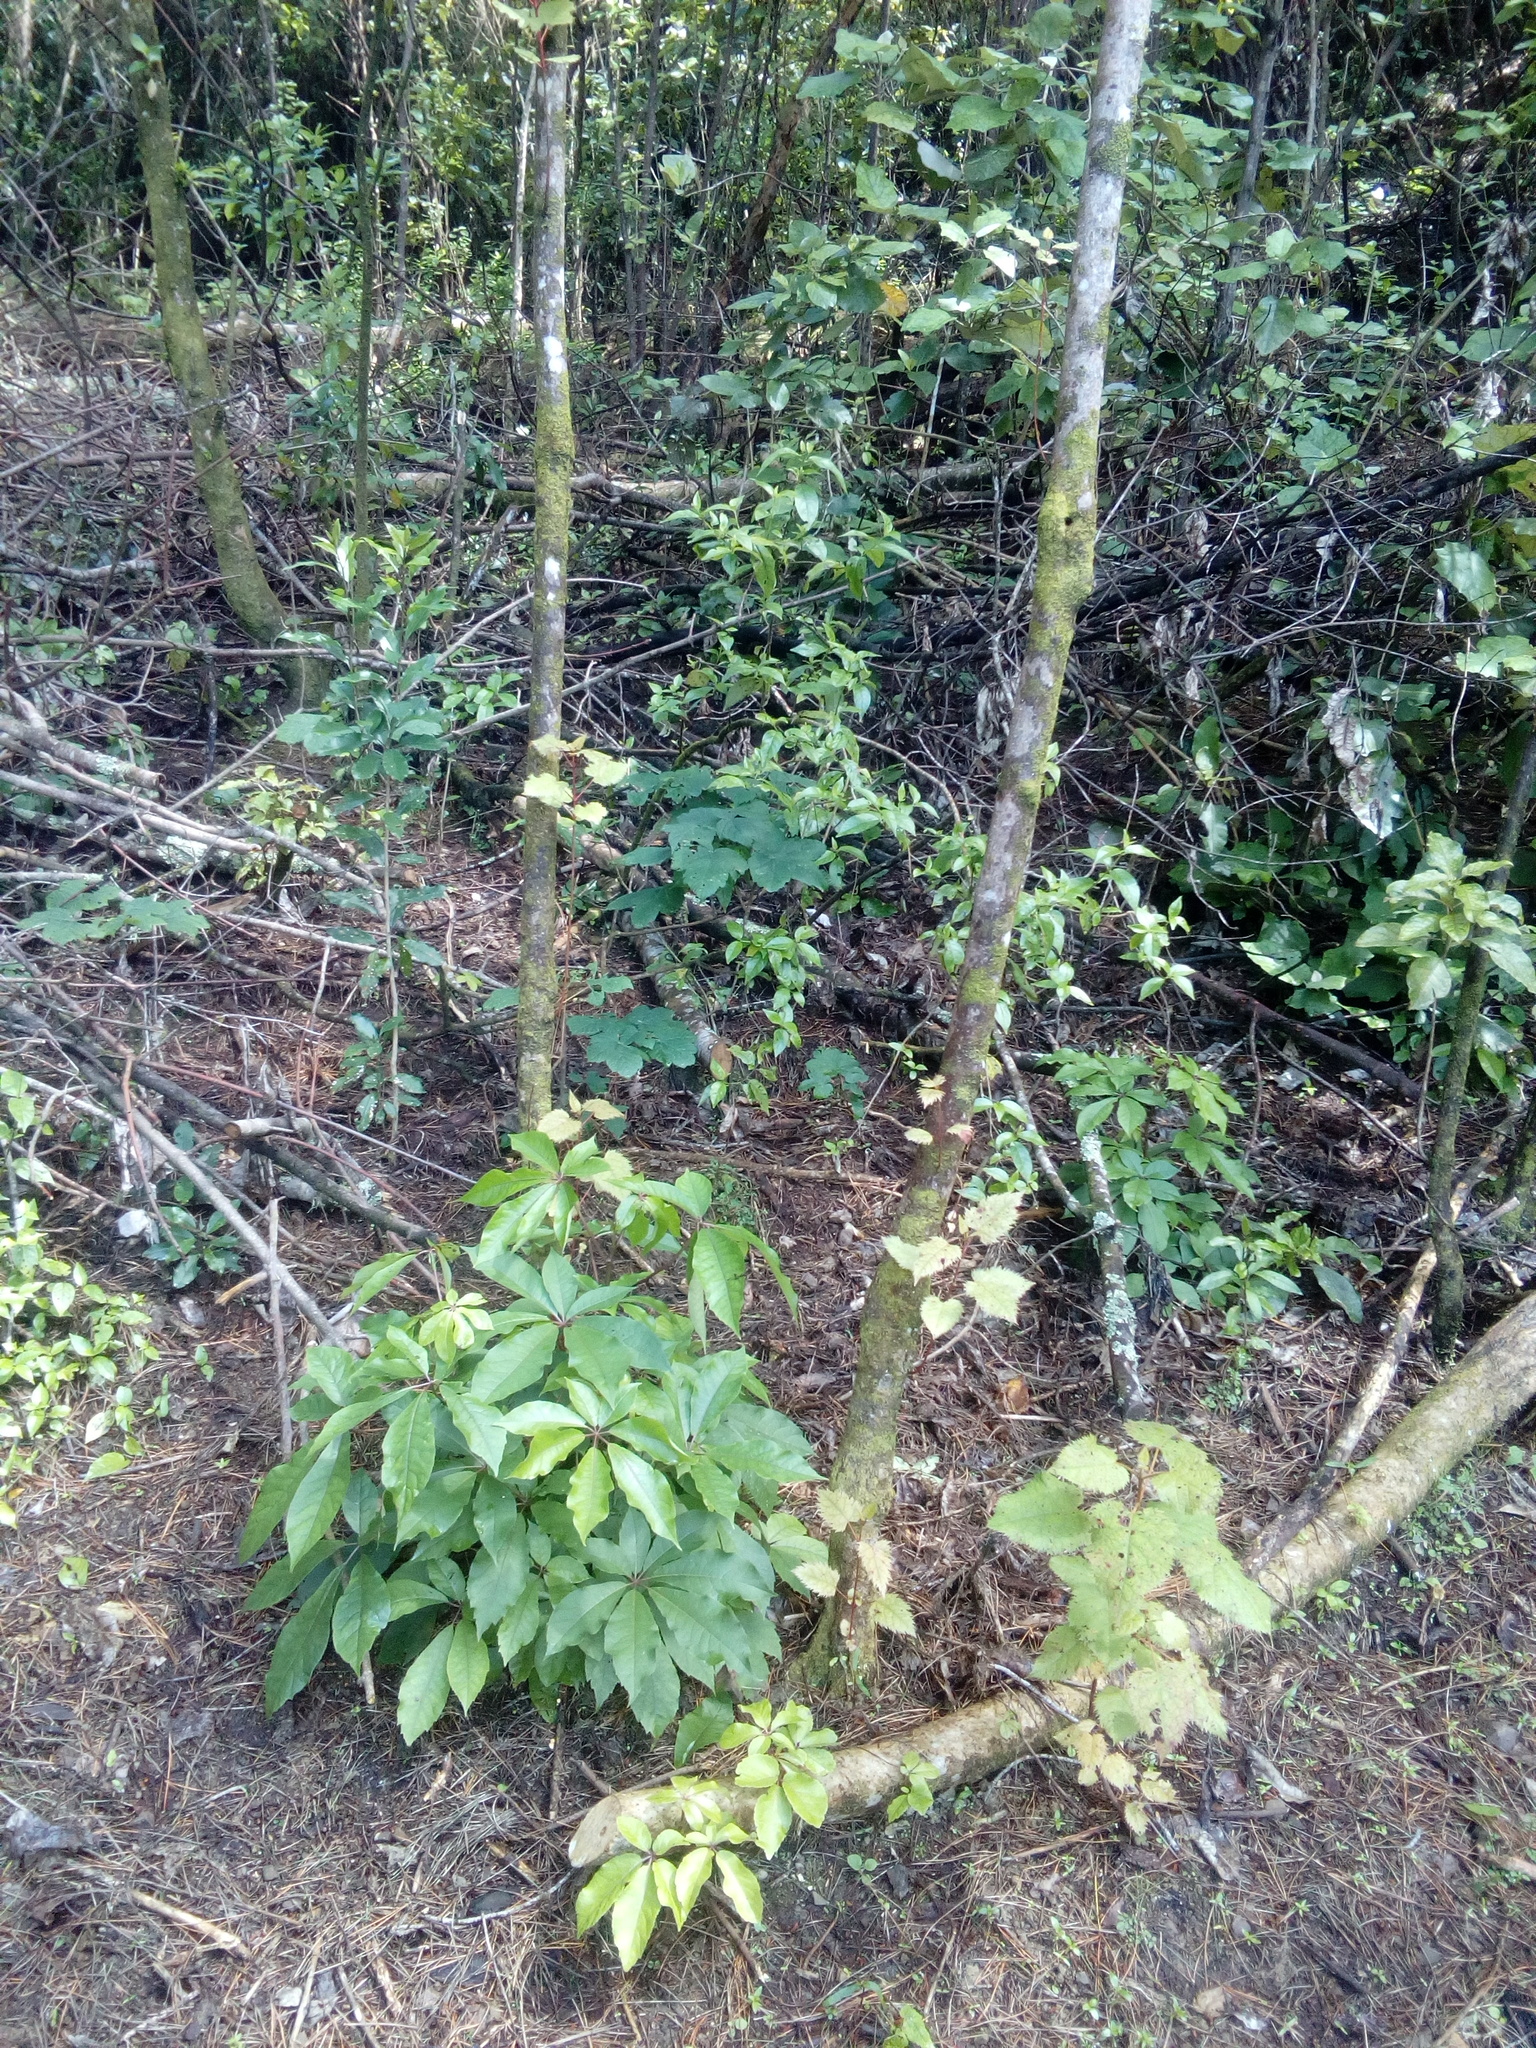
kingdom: Plantae
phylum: Tracheophyta
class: Magnoliopsida
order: Sapindales
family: Sapindaceae
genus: Acer
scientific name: Acer pseudoplatanus
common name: Sycamore
